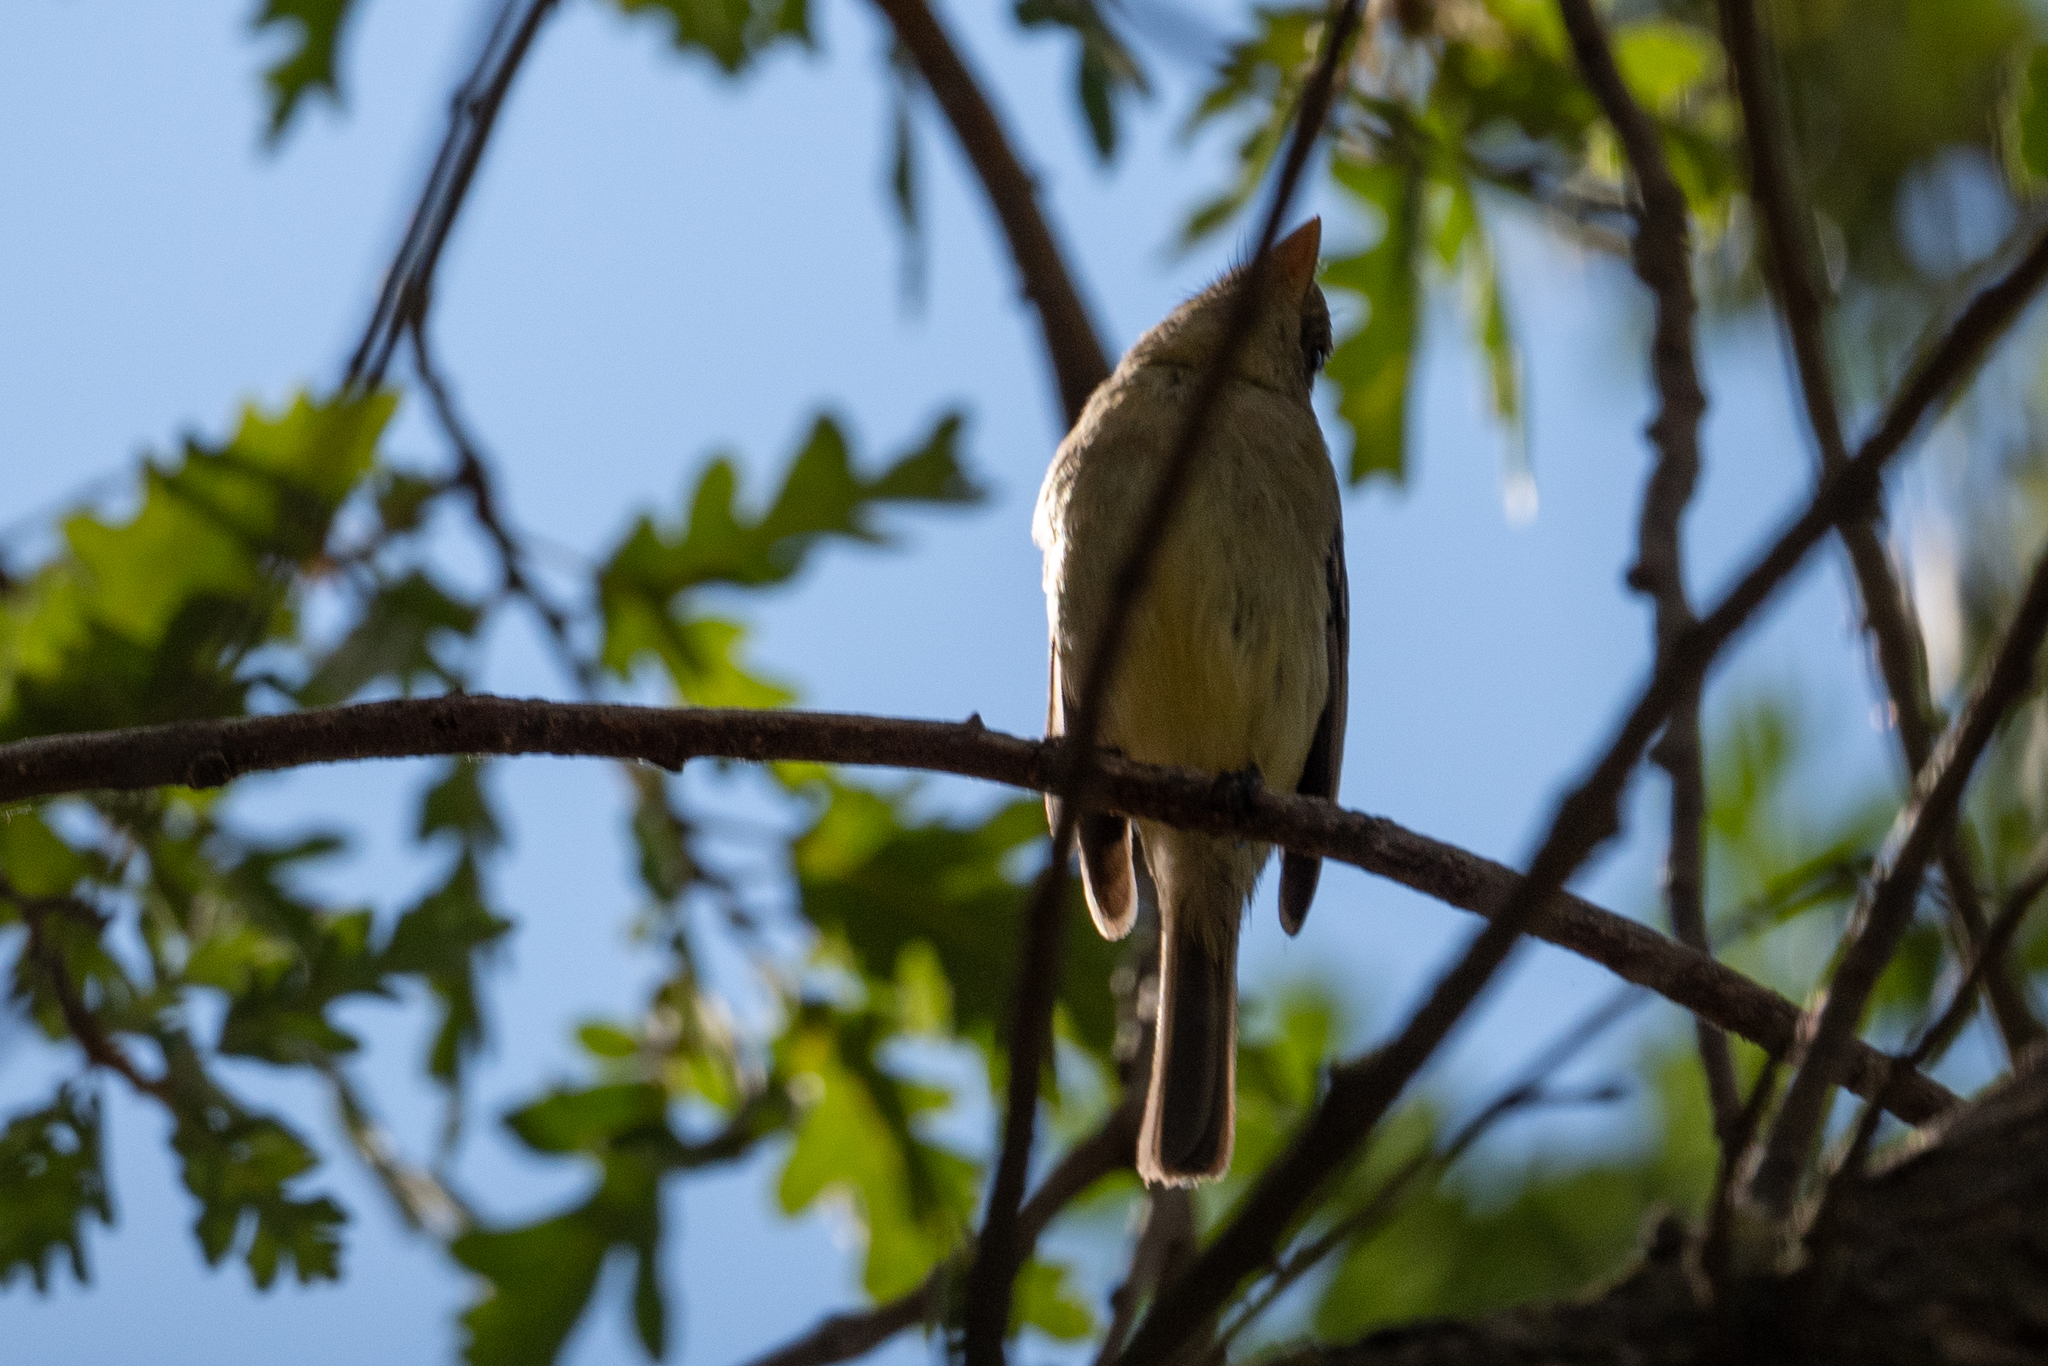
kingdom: Animalia
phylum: Chordata
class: Aves
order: Passeriformes
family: Tyrannidae
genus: Empidonax
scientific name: Empidonax difficilis
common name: Pacific-slope flycatcher
